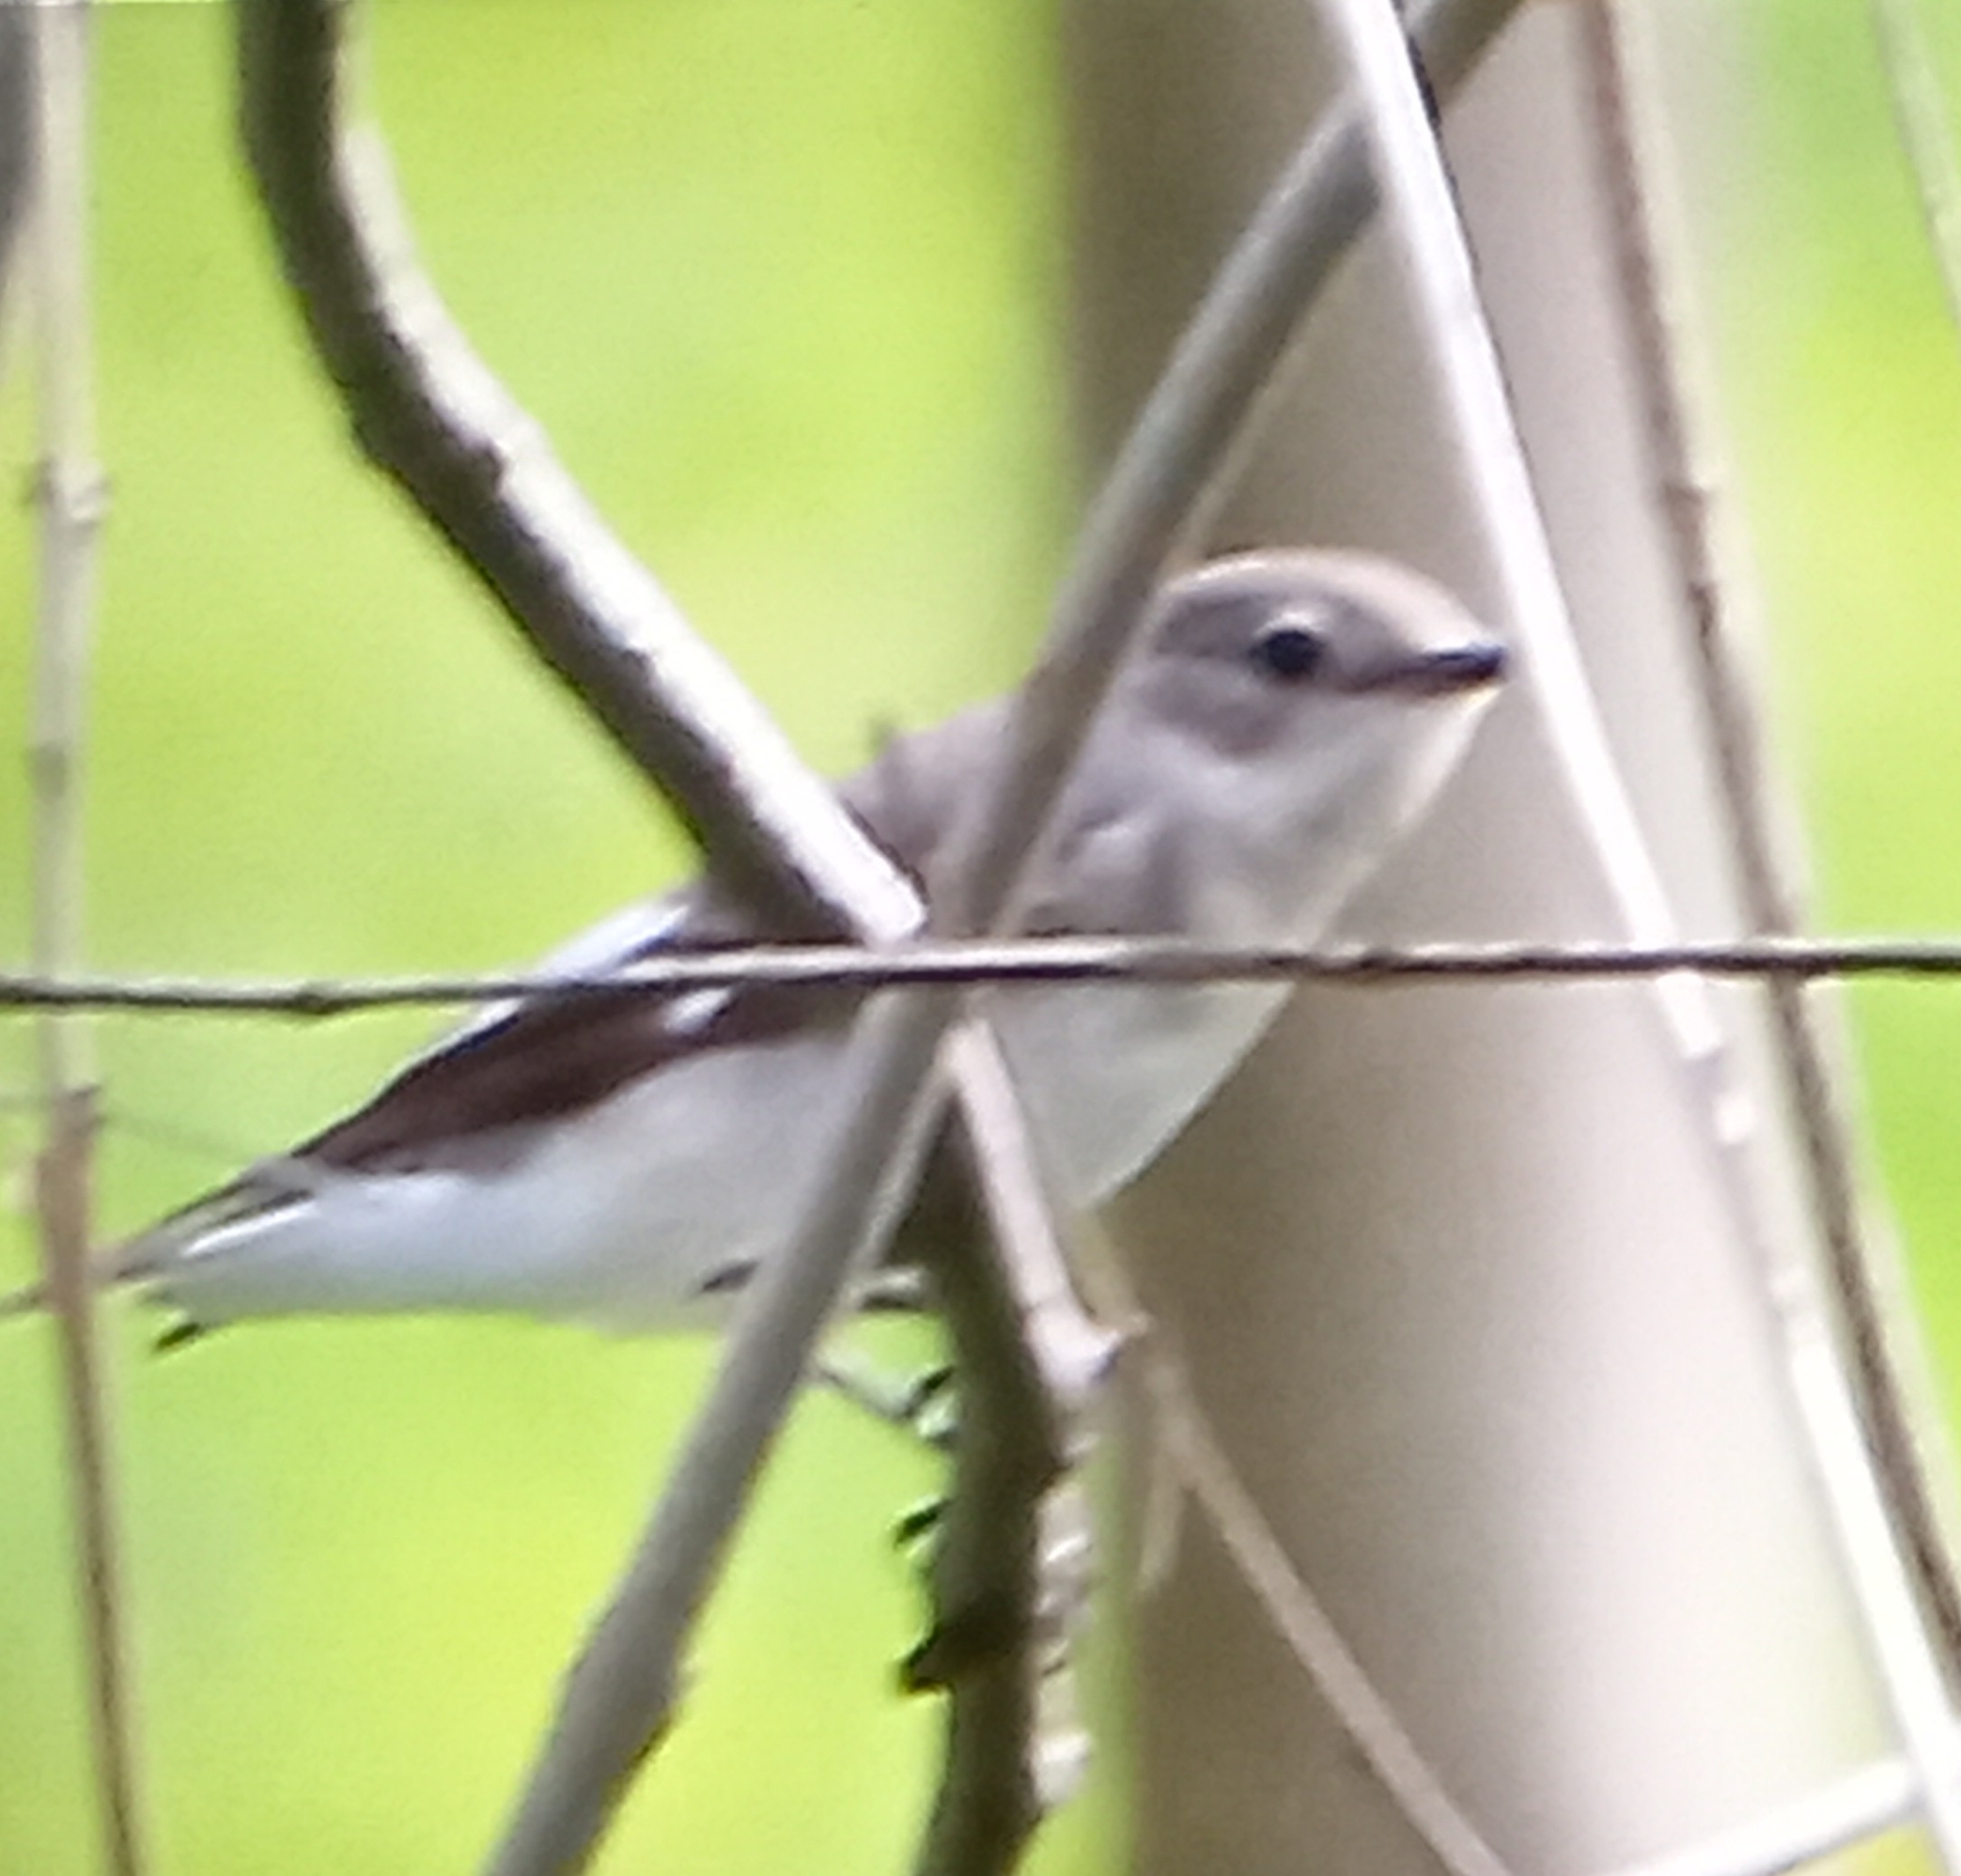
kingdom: Animalia
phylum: Chordata
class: Aves
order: Passeriformes
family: Muscicapidae
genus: Ficedula
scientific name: Ficedula albicollis
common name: Collared flycatcher
